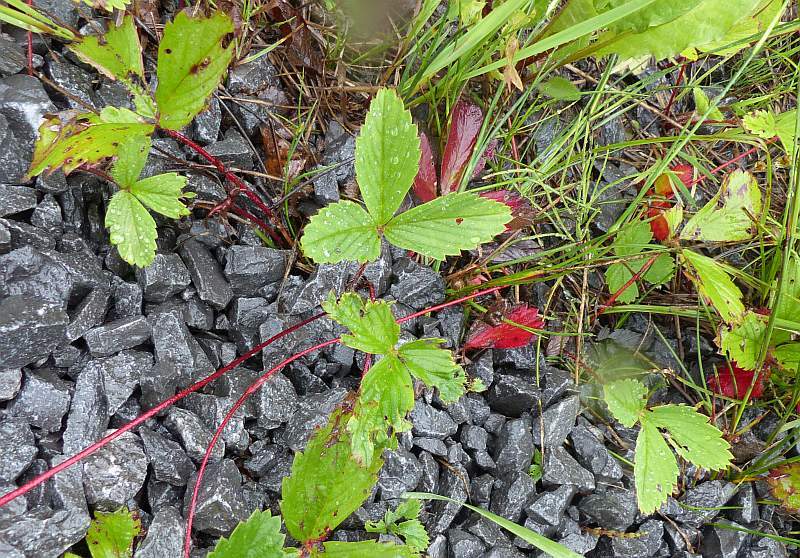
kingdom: Plantae
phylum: Tracheophyta
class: Magnoliopsida
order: Rosales
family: Rosaceae
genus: Fragaria
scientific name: Fragaria virginiana
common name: Thickleaved wild strawberry
